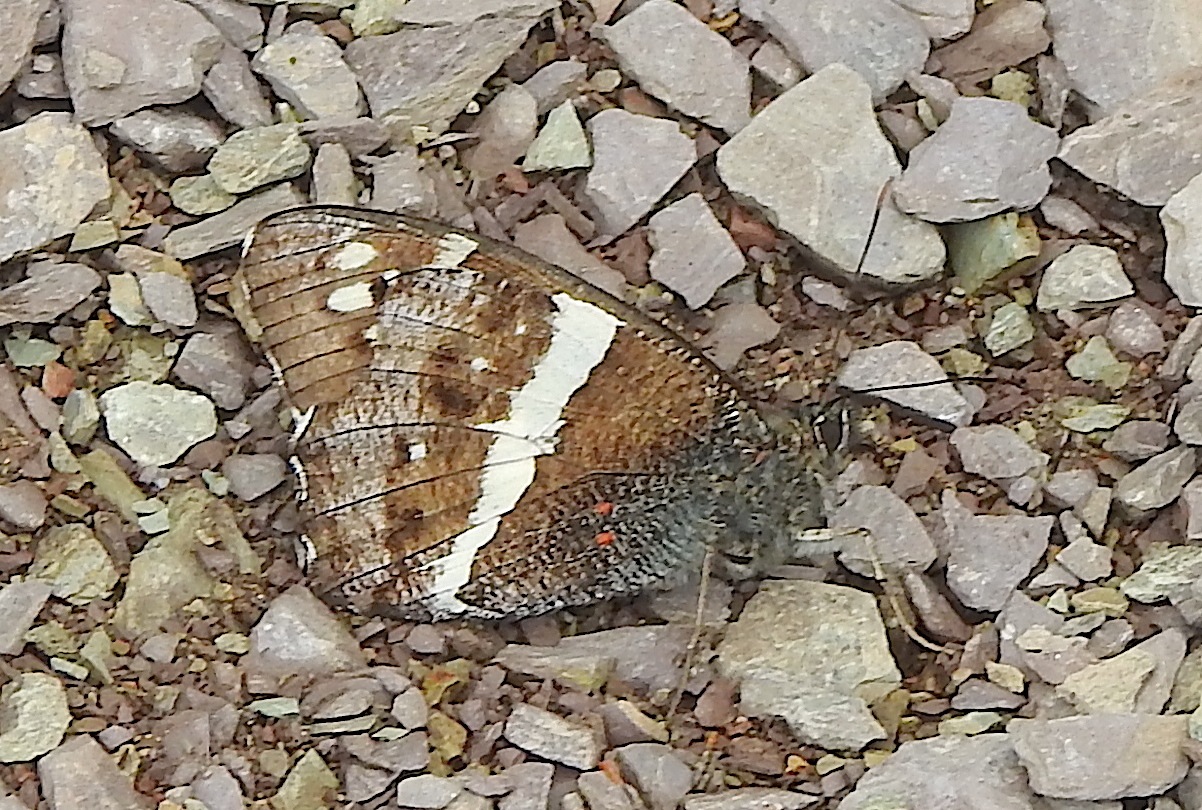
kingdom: Animalia
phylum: Arthropoda
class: Insecta
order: Lepidoptera
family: Nymphalidae
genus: Satyrus
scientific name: Satyrus
